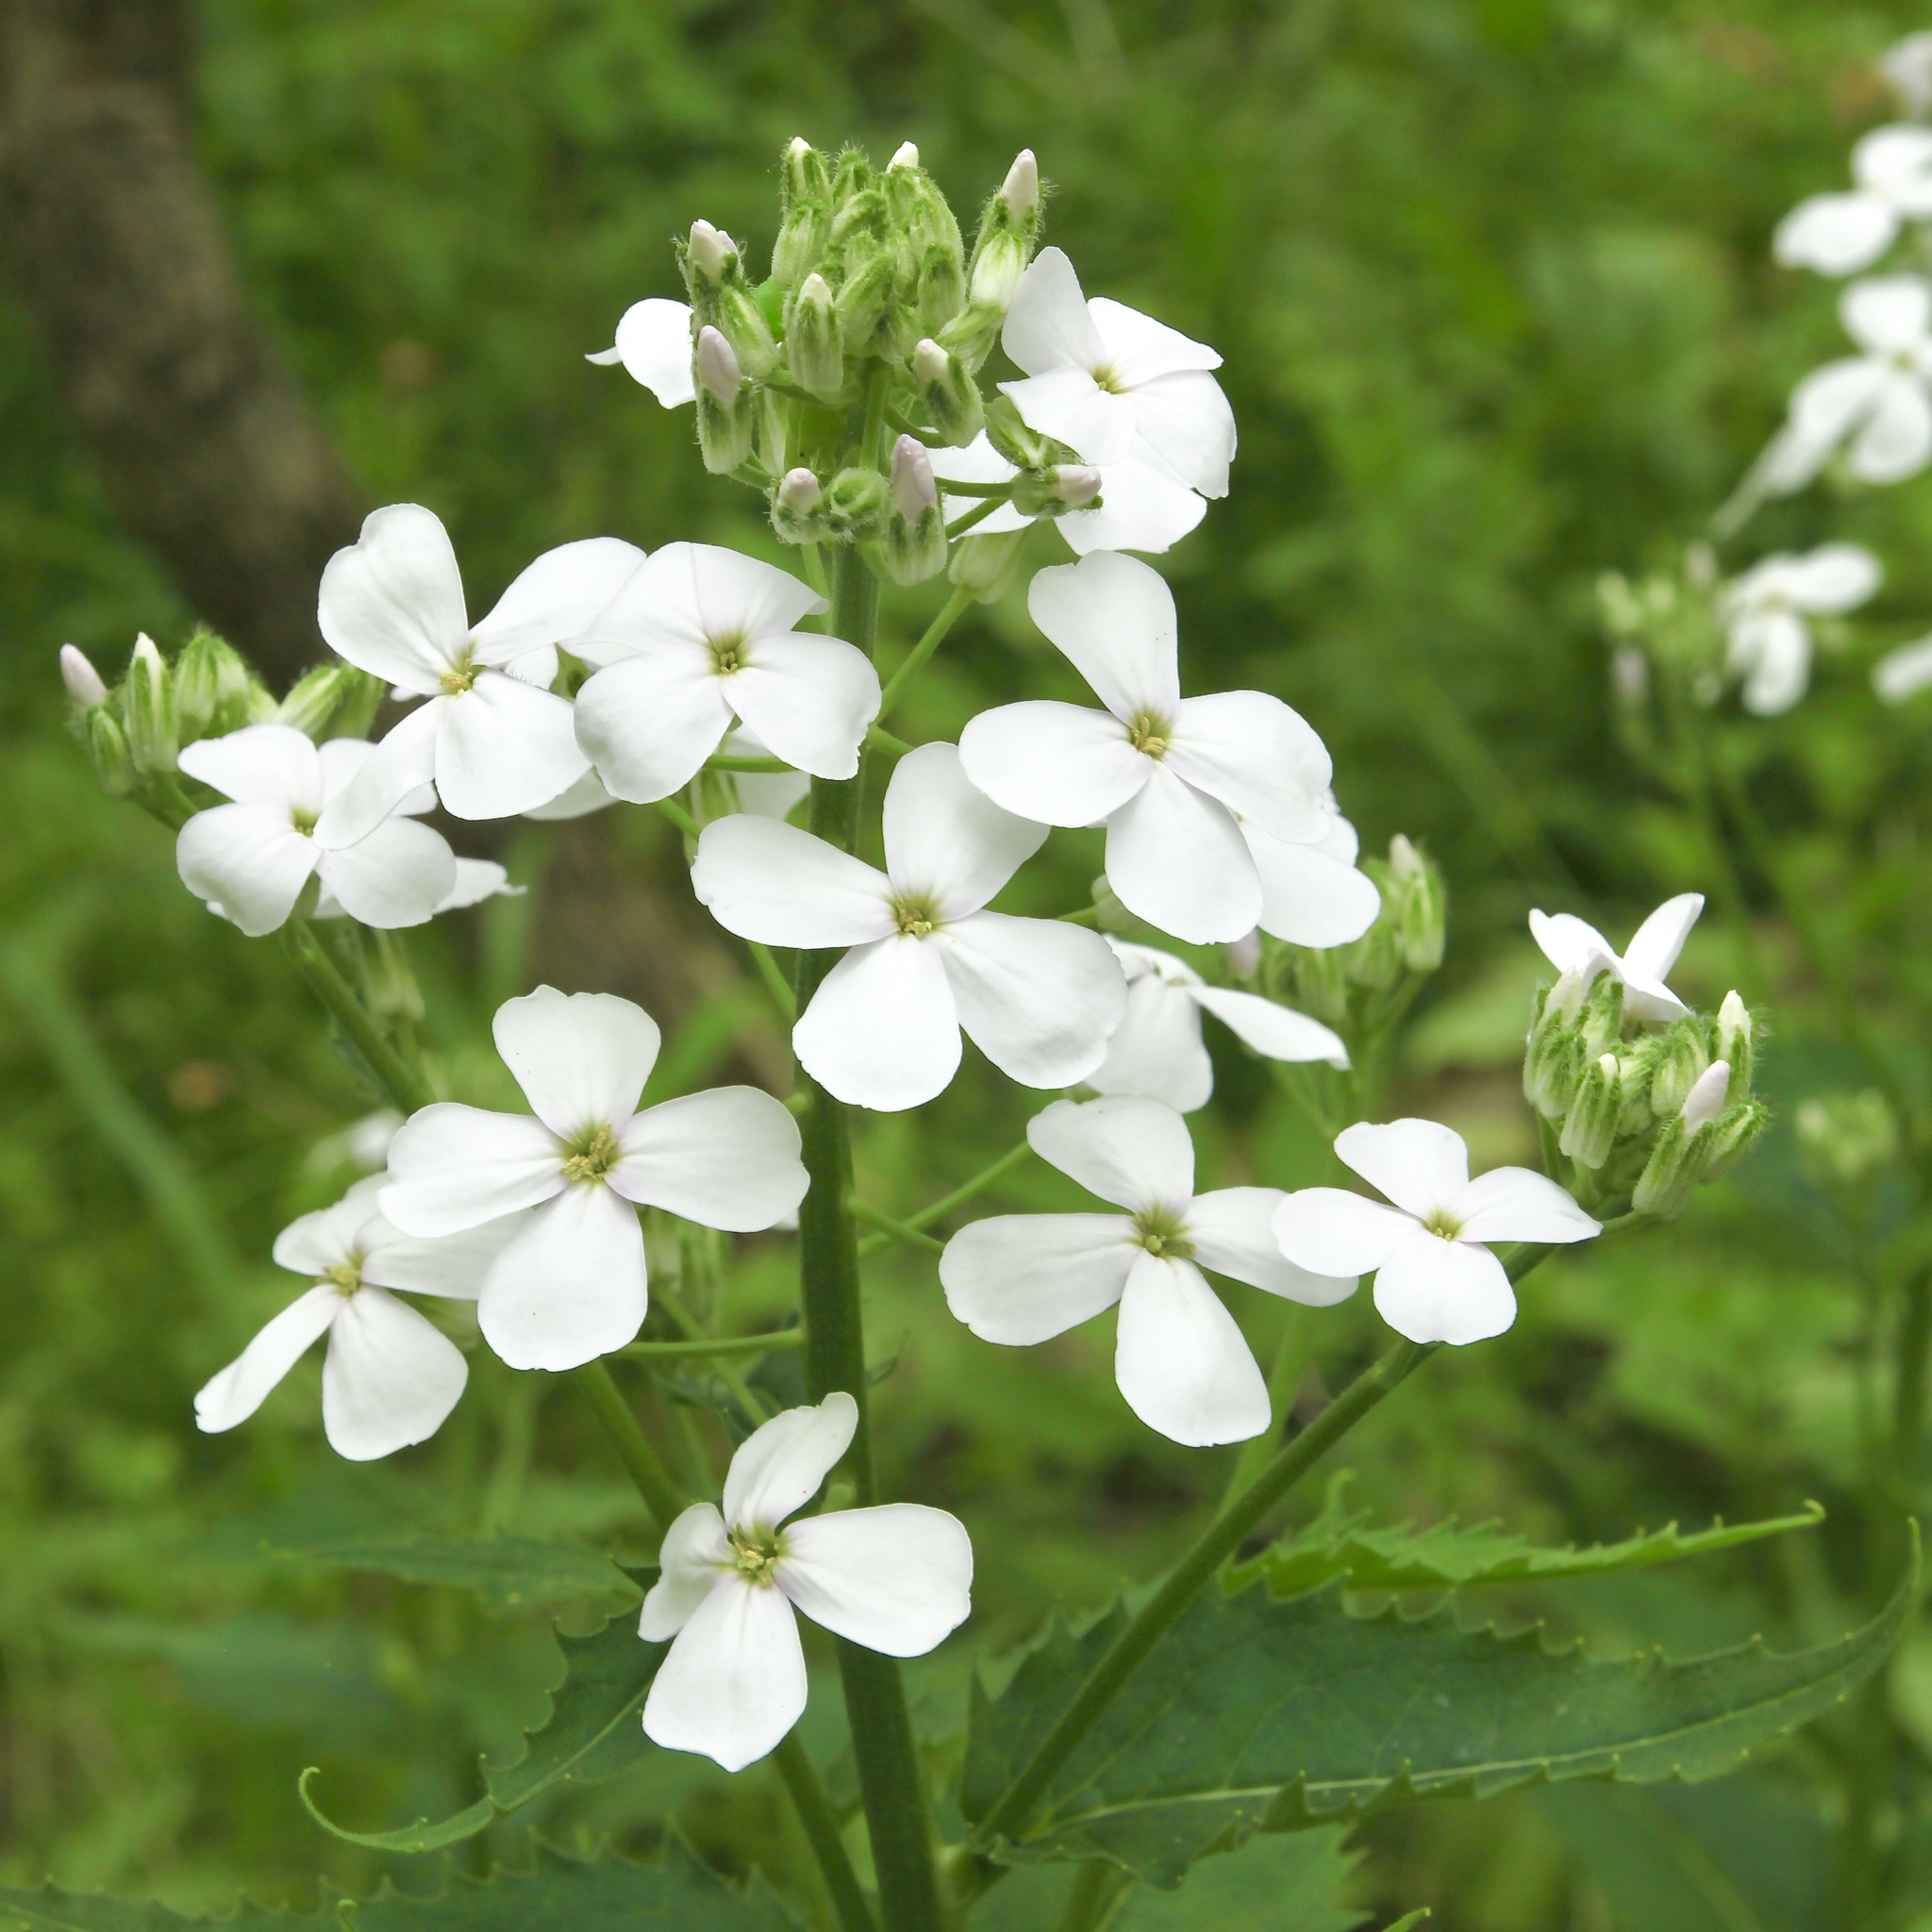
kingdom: Plantae
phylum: Tracheophyta
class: Magnoliopsida
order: Brassicales
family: Brassicaceae
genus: Hesperis
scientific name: Hesperis matronalis
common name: Dame's-violet
